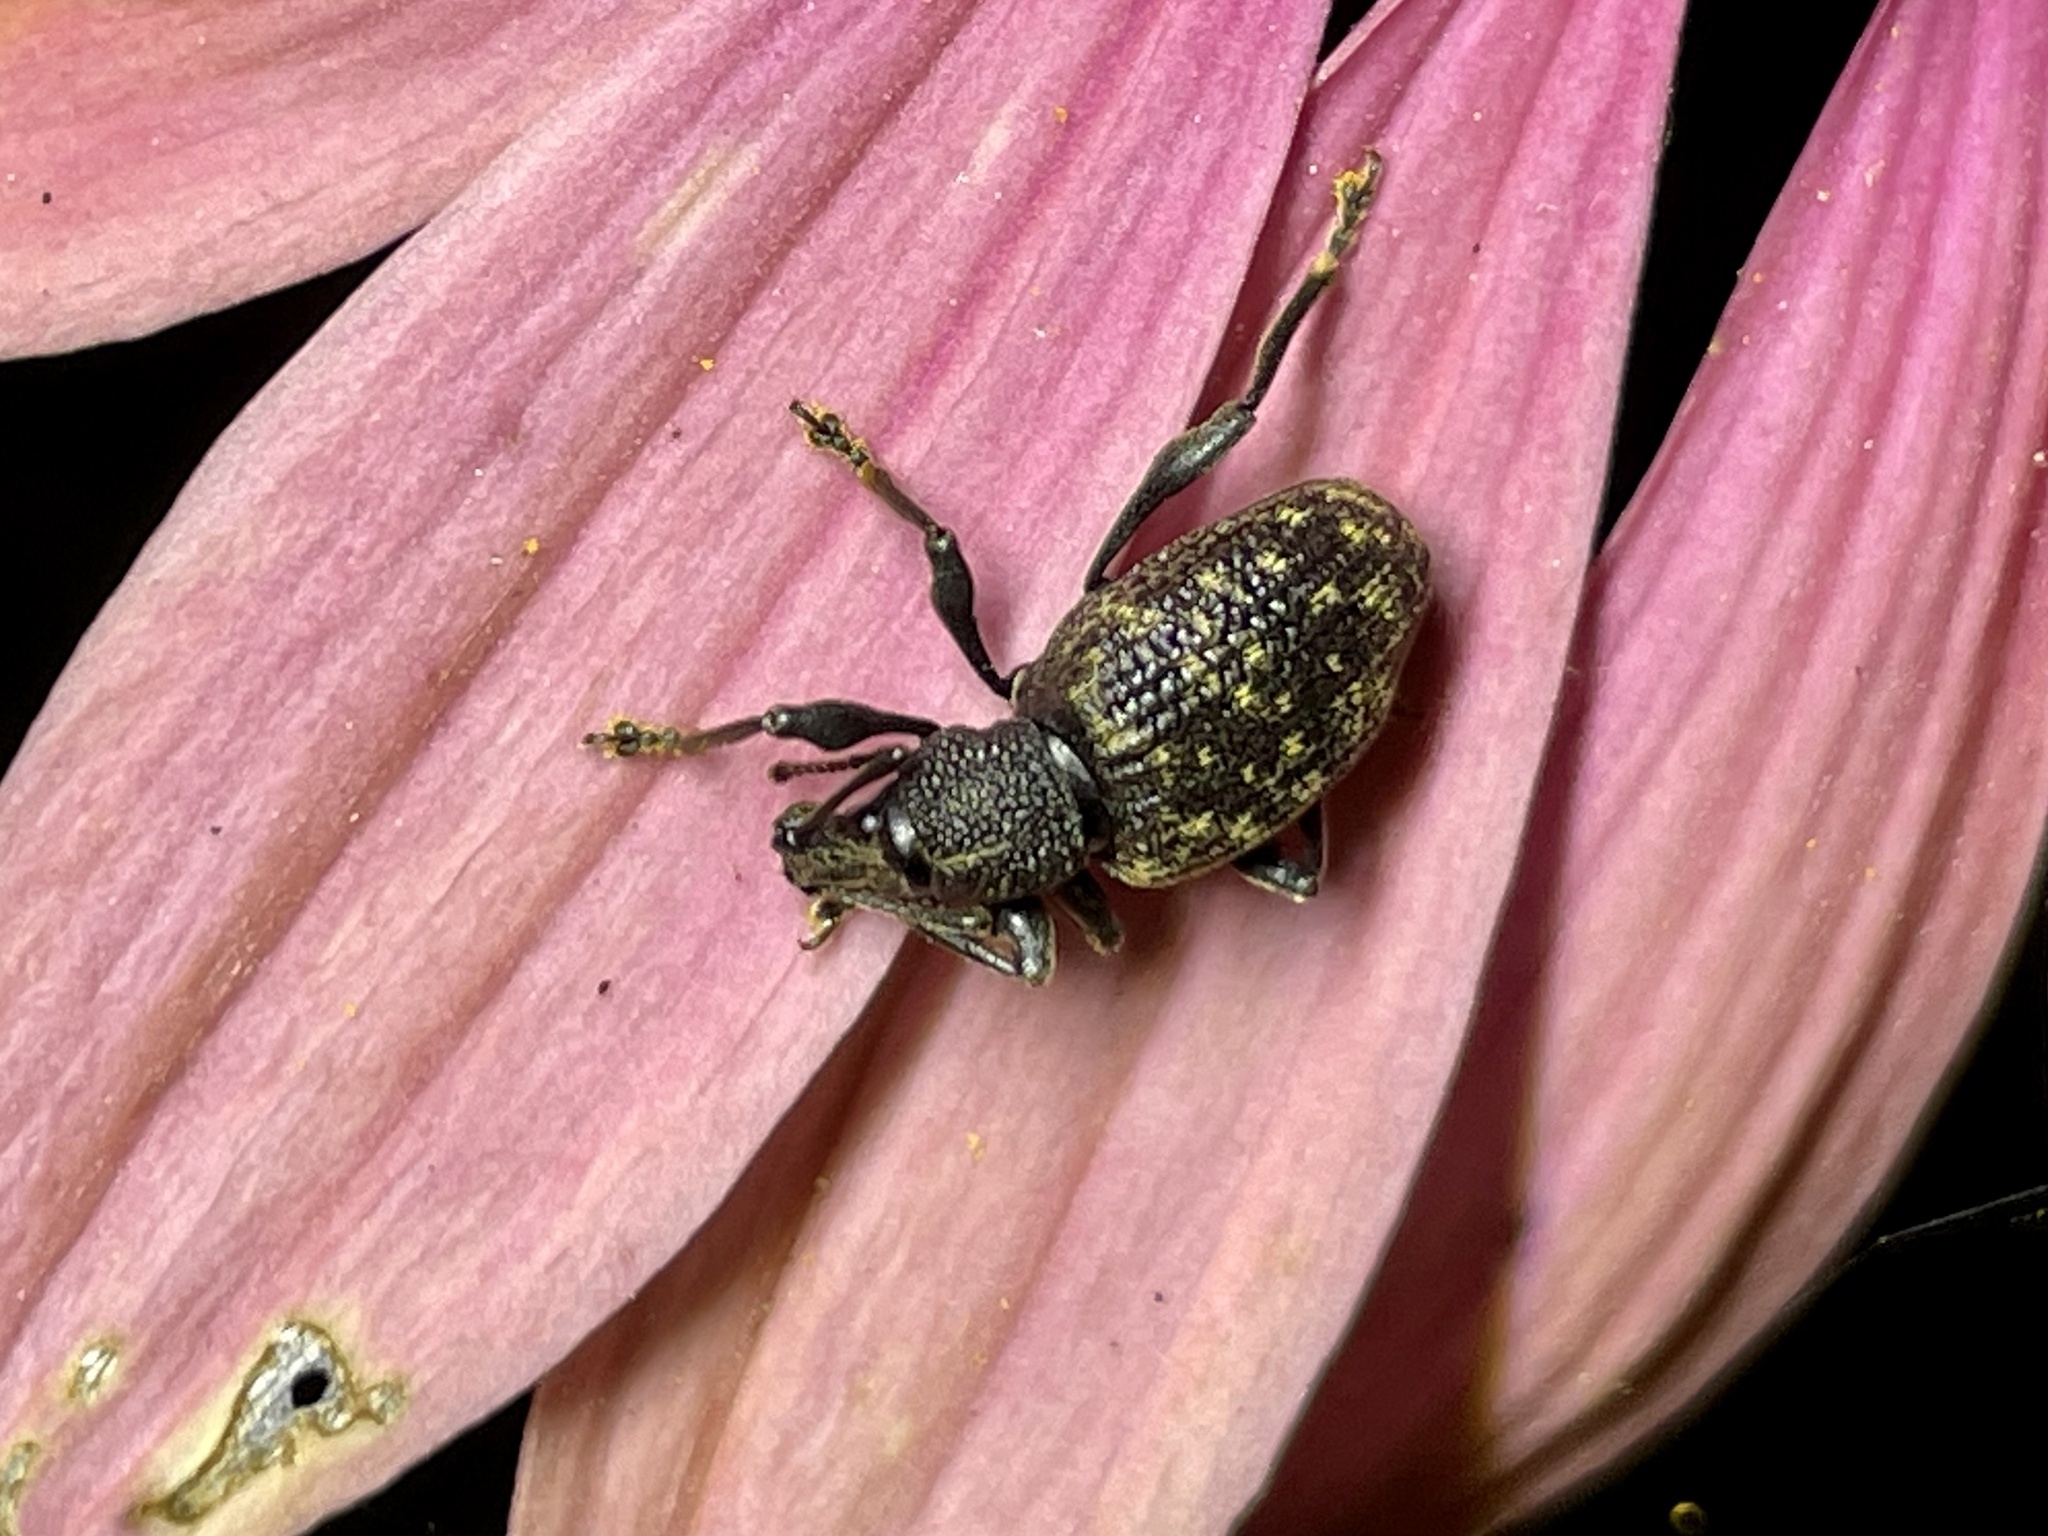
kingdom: Animalia
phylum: Arthropoda
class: Insecta
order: Coleoptera
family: Curculionidae
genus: Otiorhynchus
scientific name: Otiorhynchus sulcatus
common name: Black vine weevil
